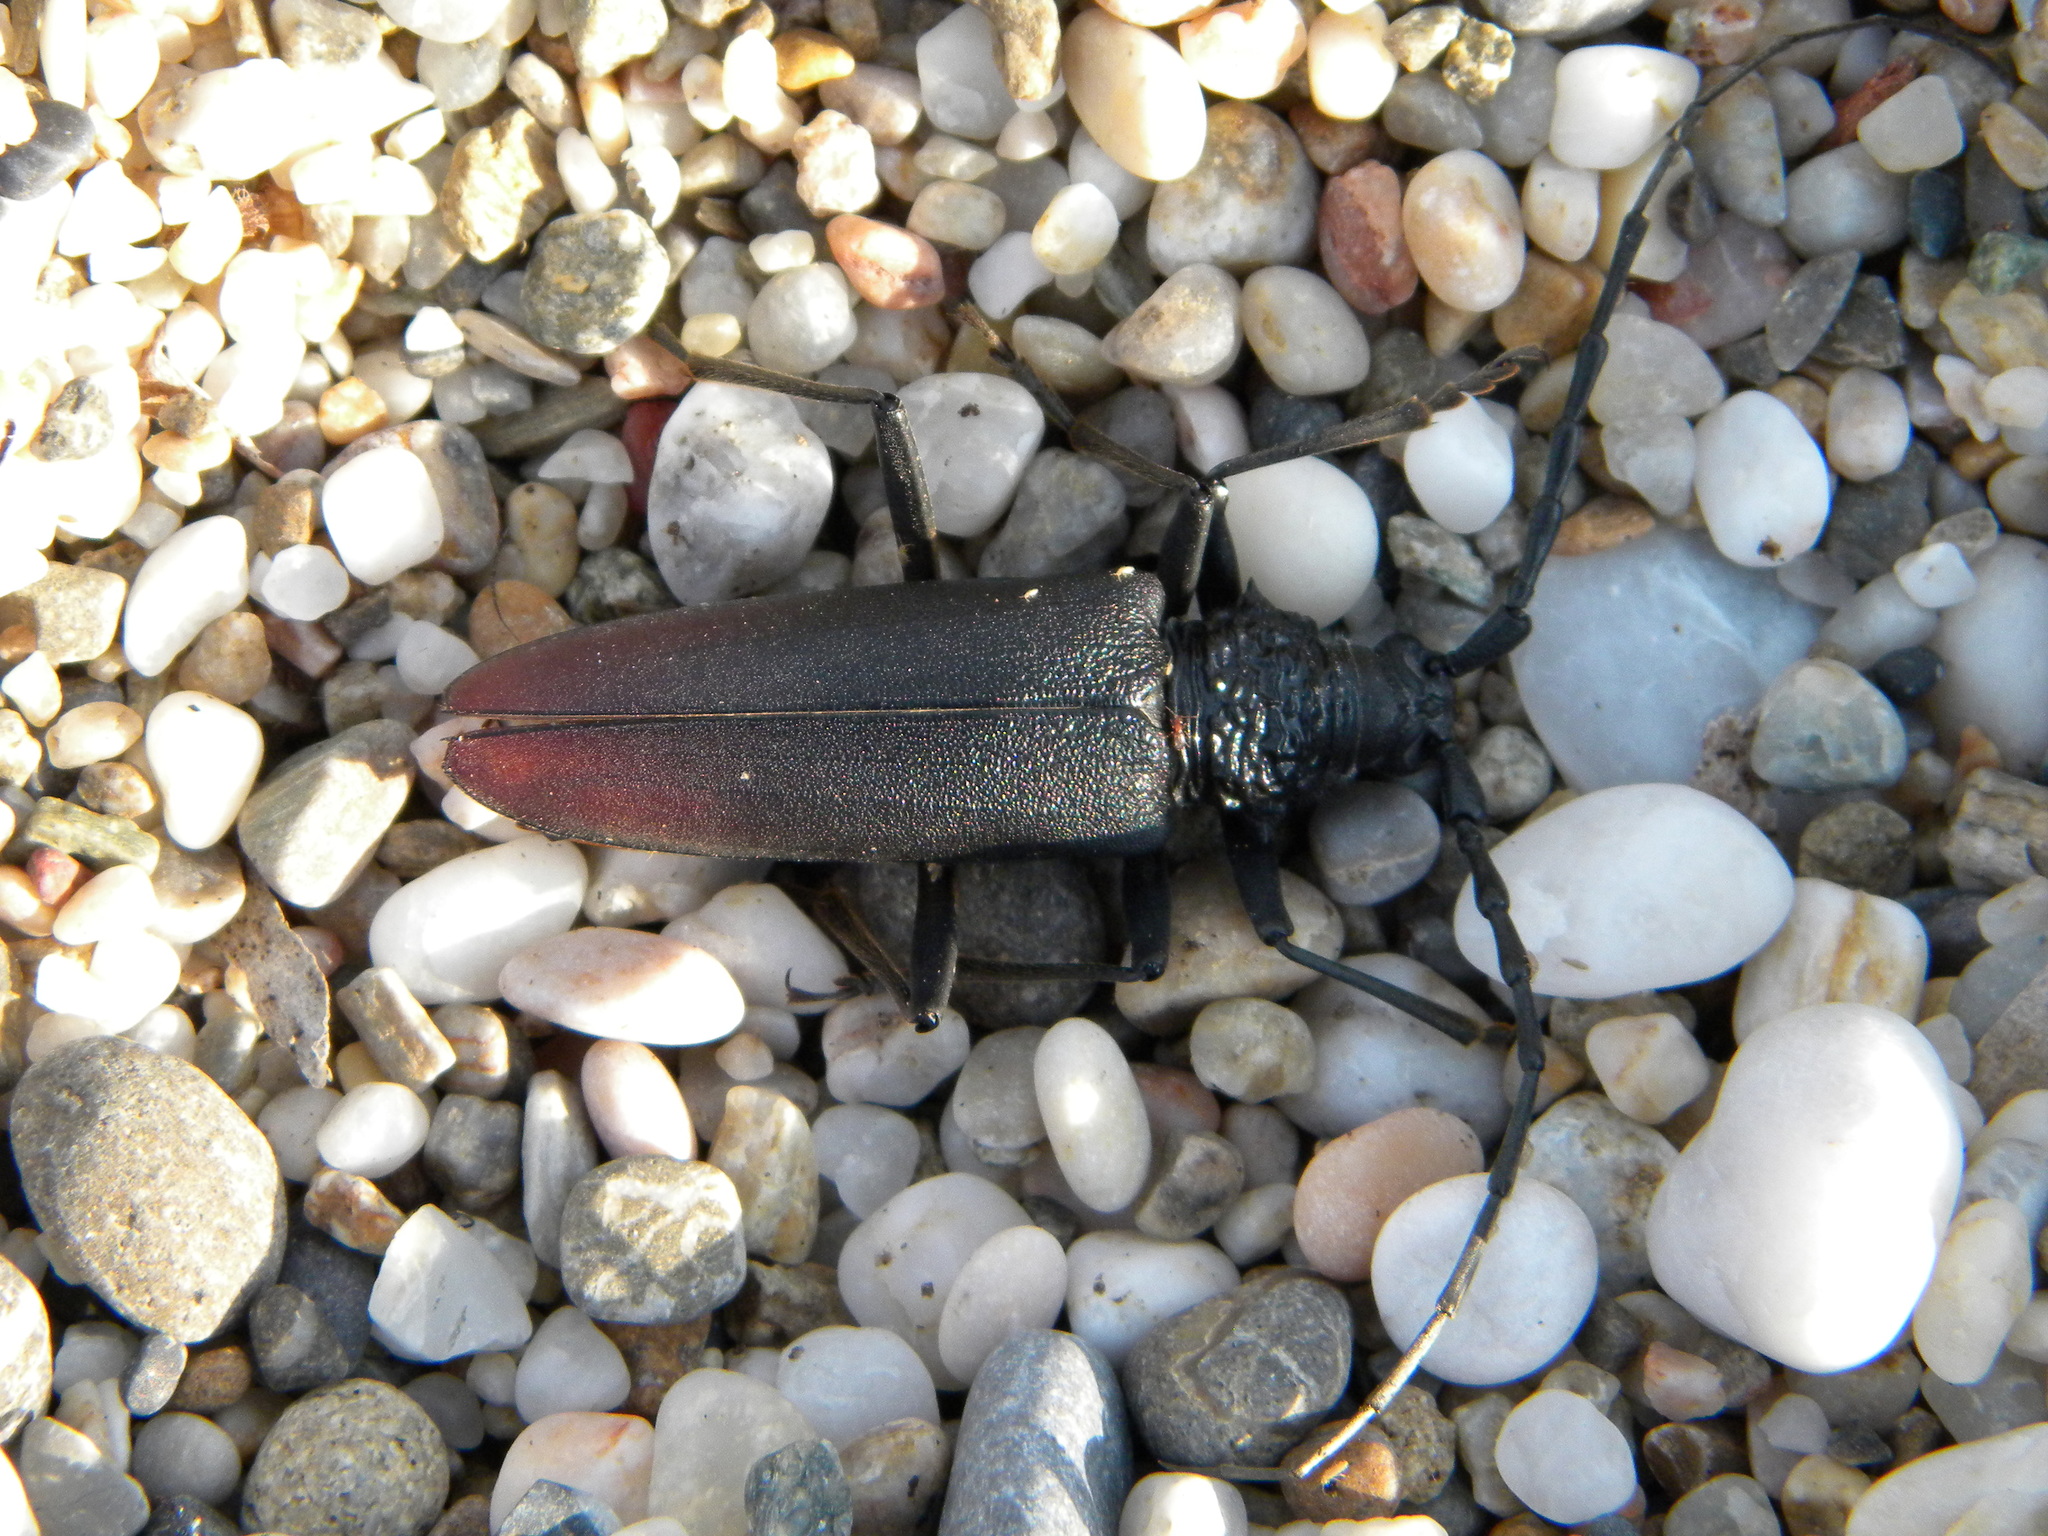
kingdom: Animalia
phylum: Arthropoda
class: Insecta
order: Coleoptera
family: Cerambycidae
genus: Cerambyx
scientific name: Cerambyx cerdo
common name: Cerambyx longicorn
